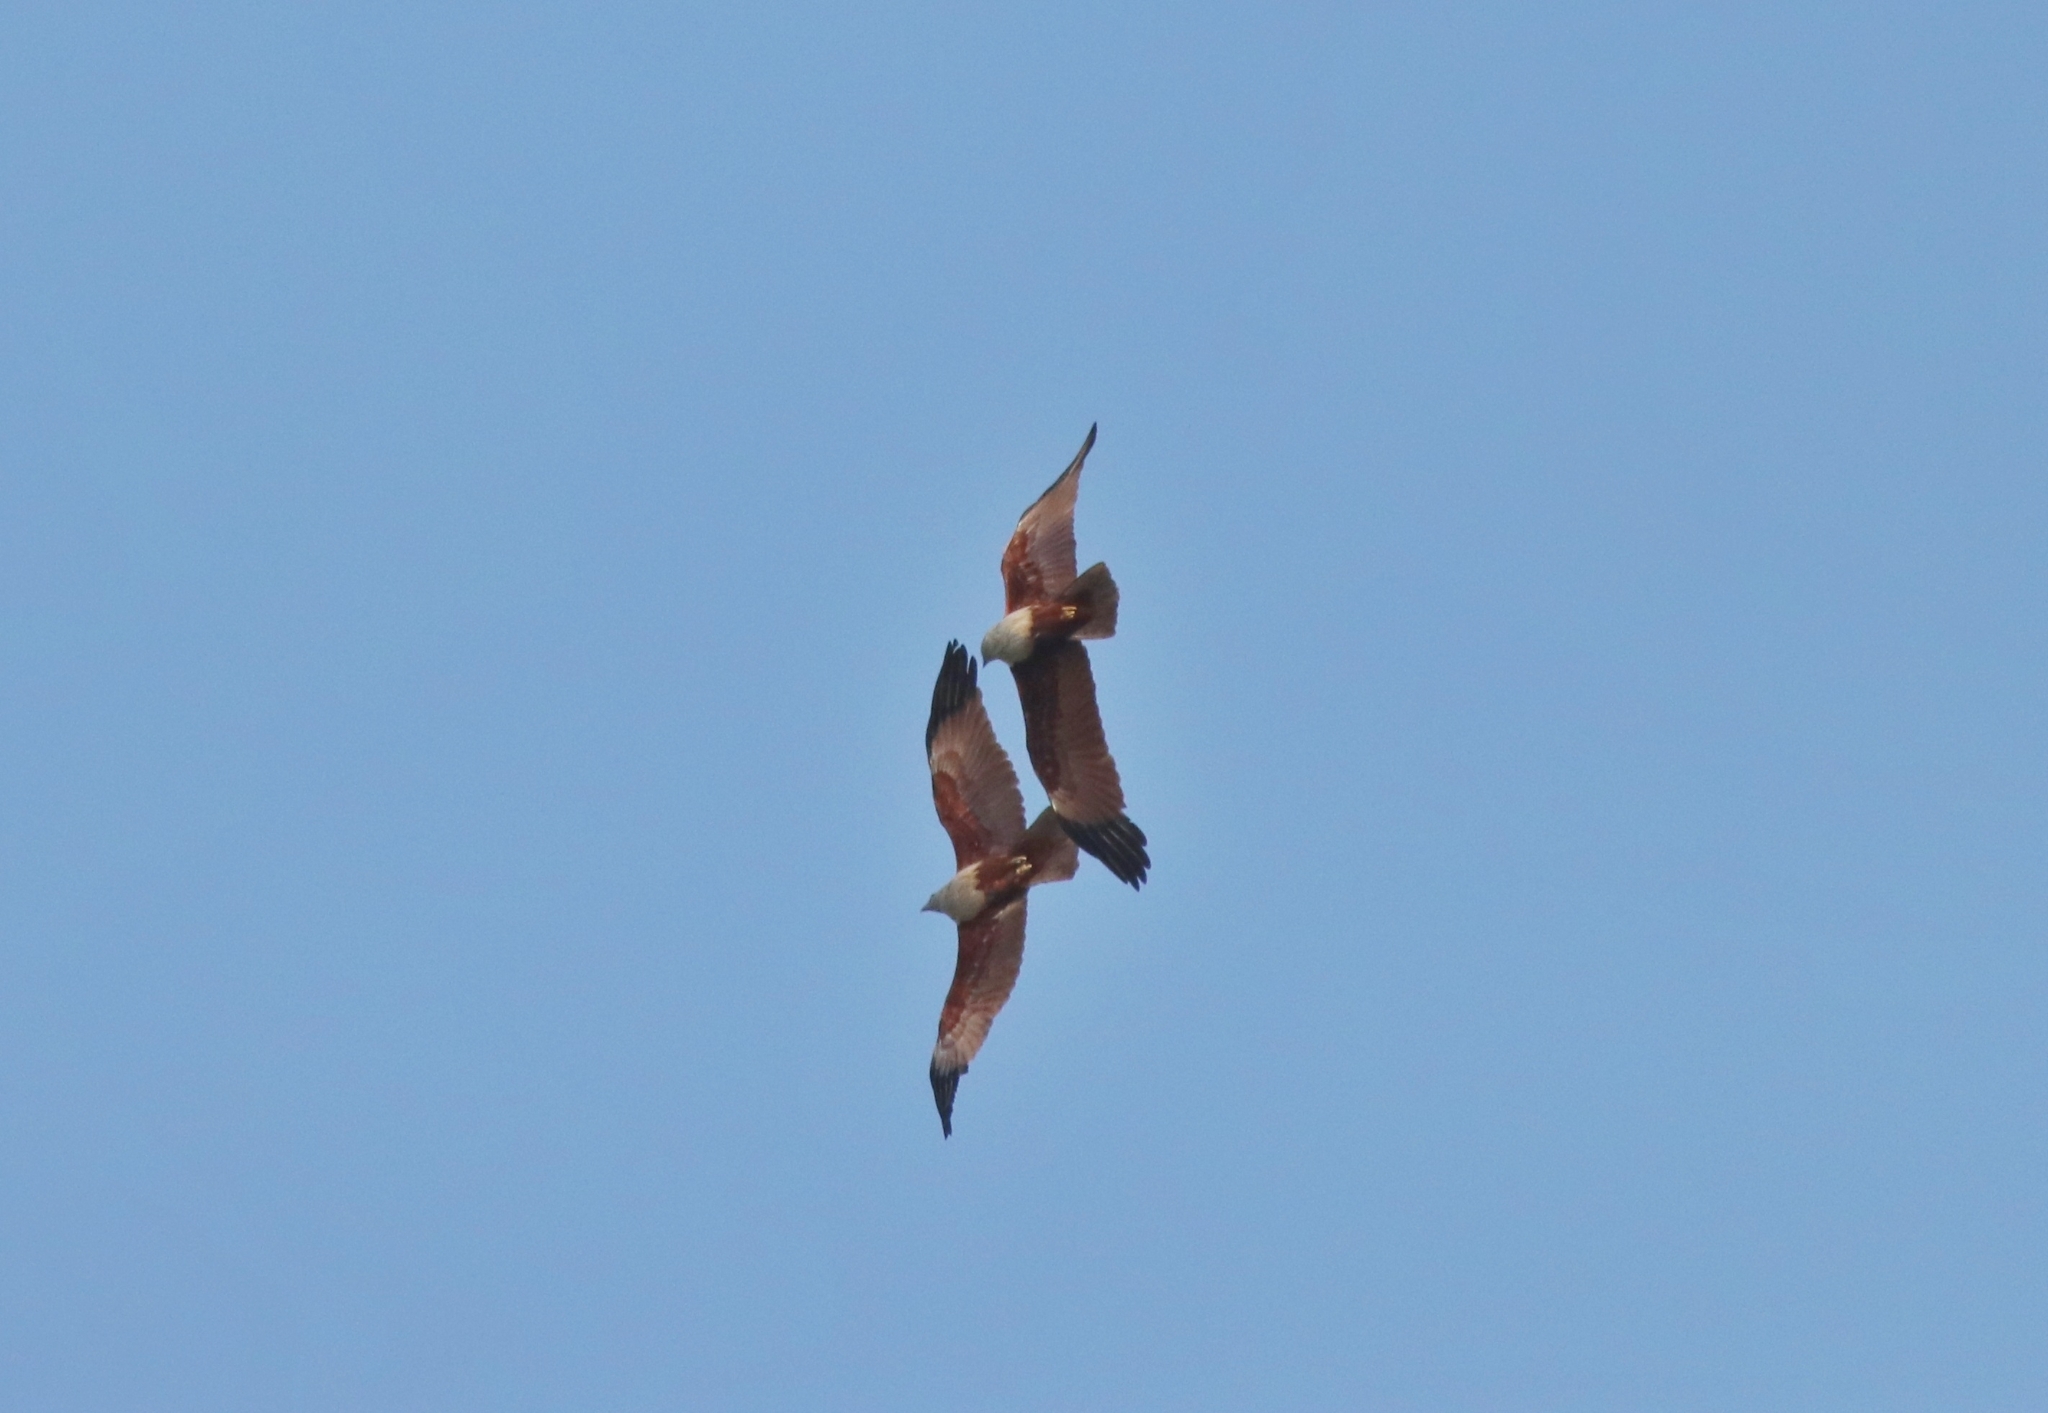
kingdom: Animalia
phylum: Chordata
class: Aves
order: Accipitriformes
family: Accipitridae
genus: Haliastur
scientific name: Haliastur indus
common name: Brahminy kite
